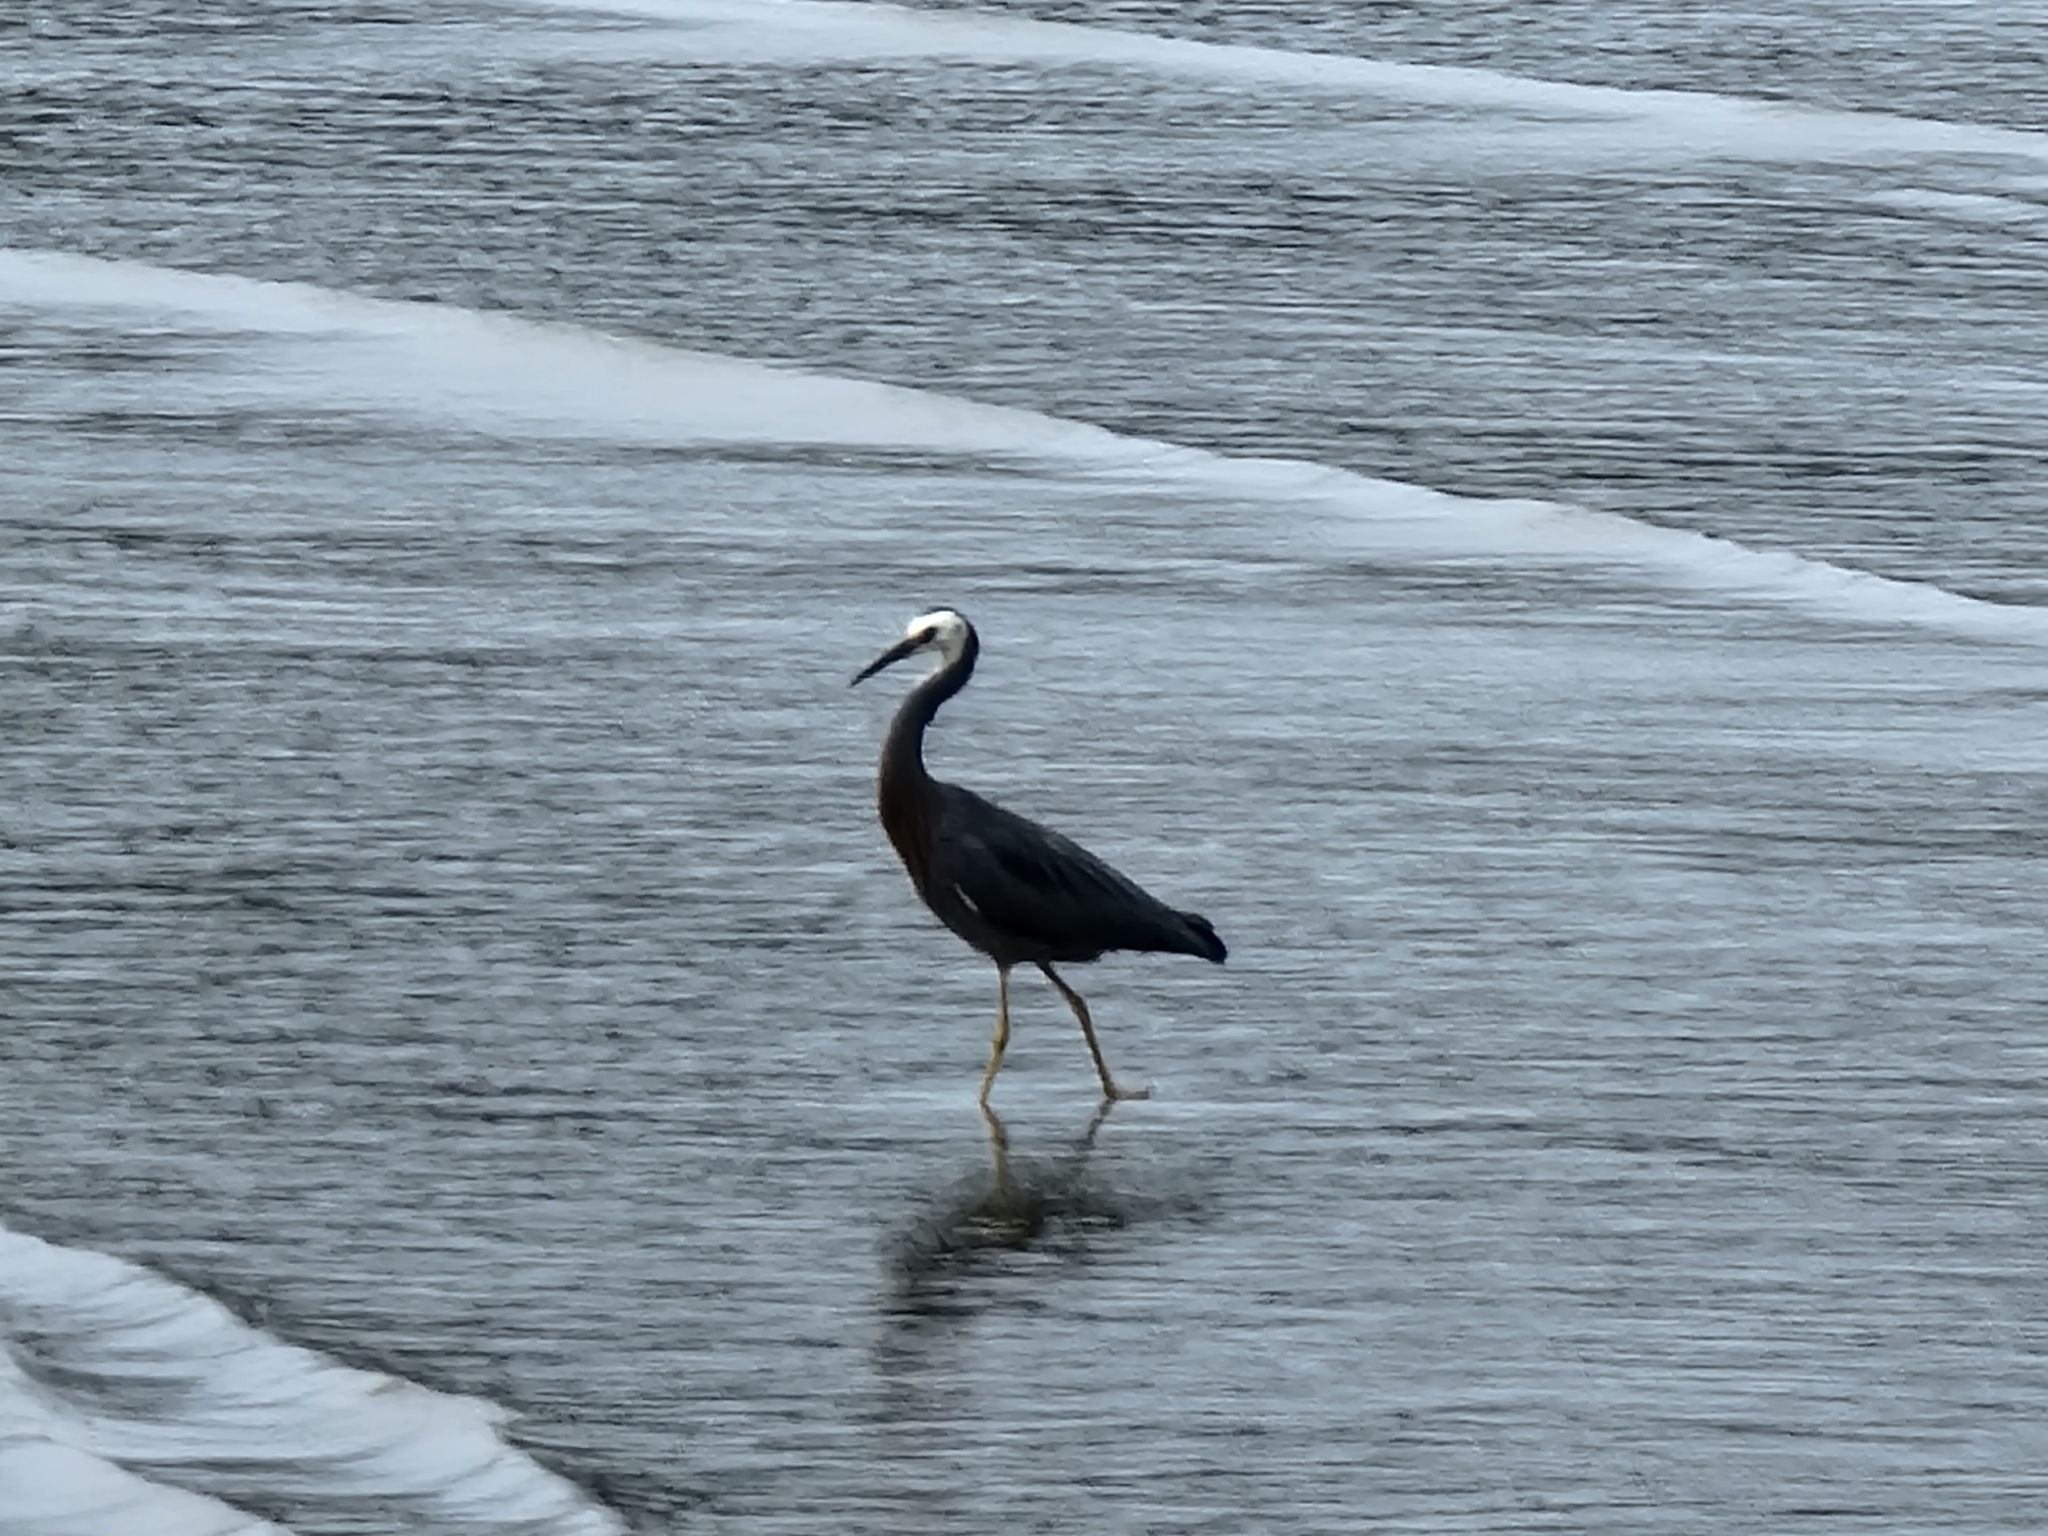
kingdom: Animalia
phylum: Chordata
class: Aves
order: Pelecaniformes
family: Ardeidae
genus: Egretta
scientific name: Egretta novaehollandiae
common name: White-faced heron
